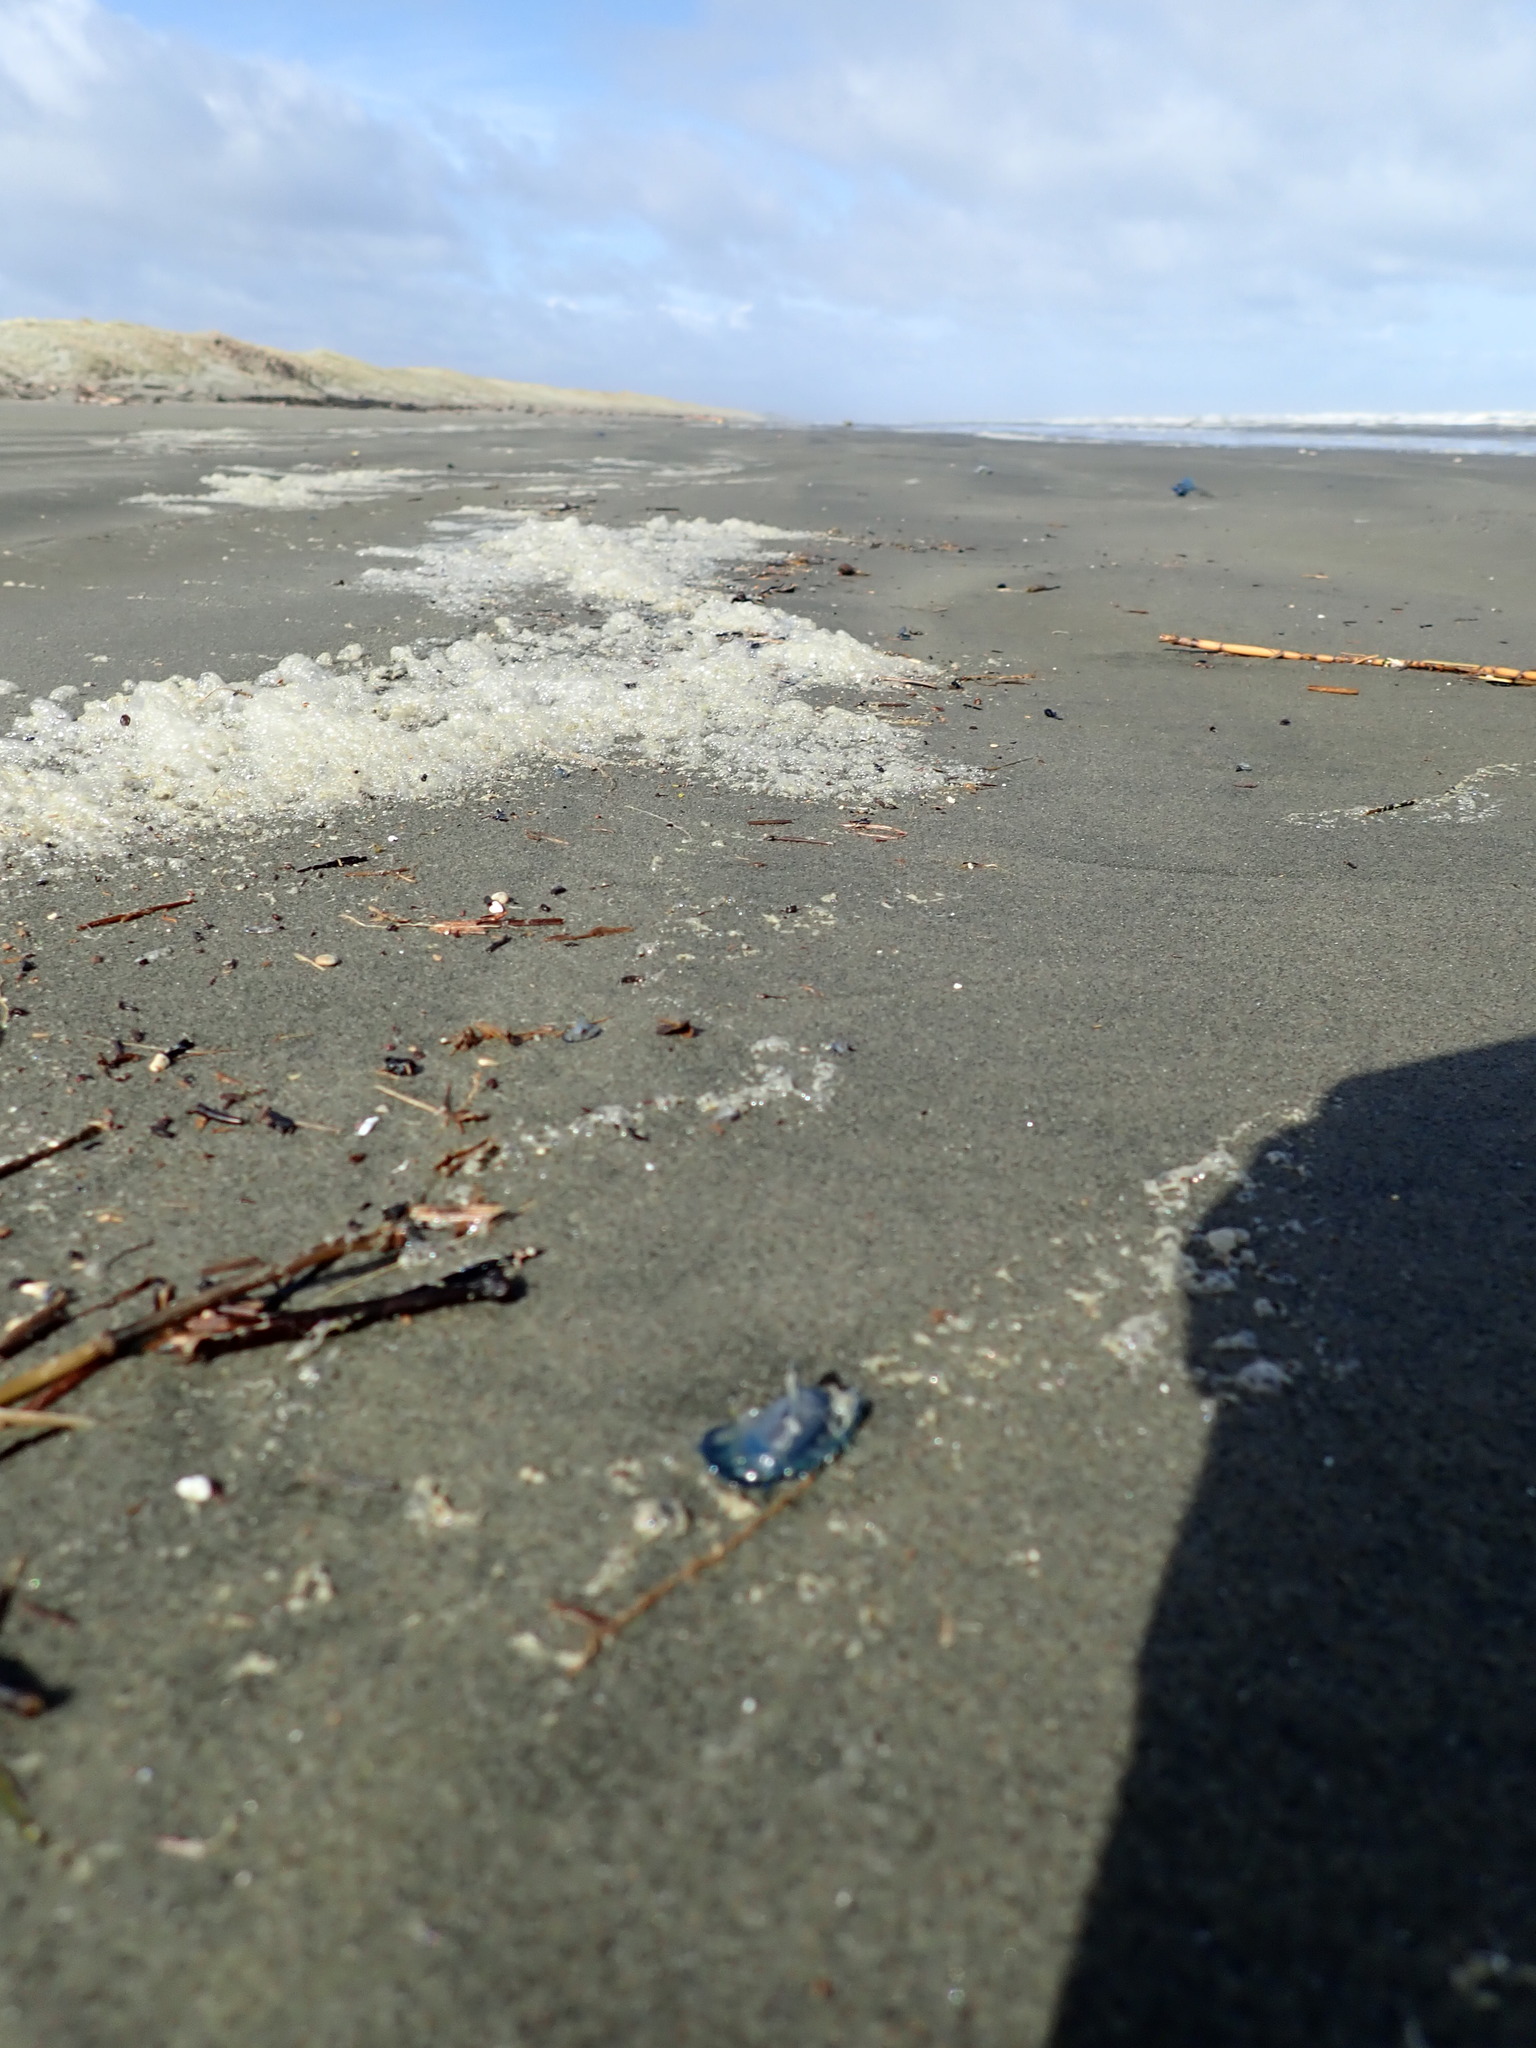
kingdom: Animalia
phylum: Cnidaria
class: Hydrozoa
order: Anthoathecata
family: Porpitidae
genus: Velella
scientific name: Velella velella
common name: By-the-wind-sailor
